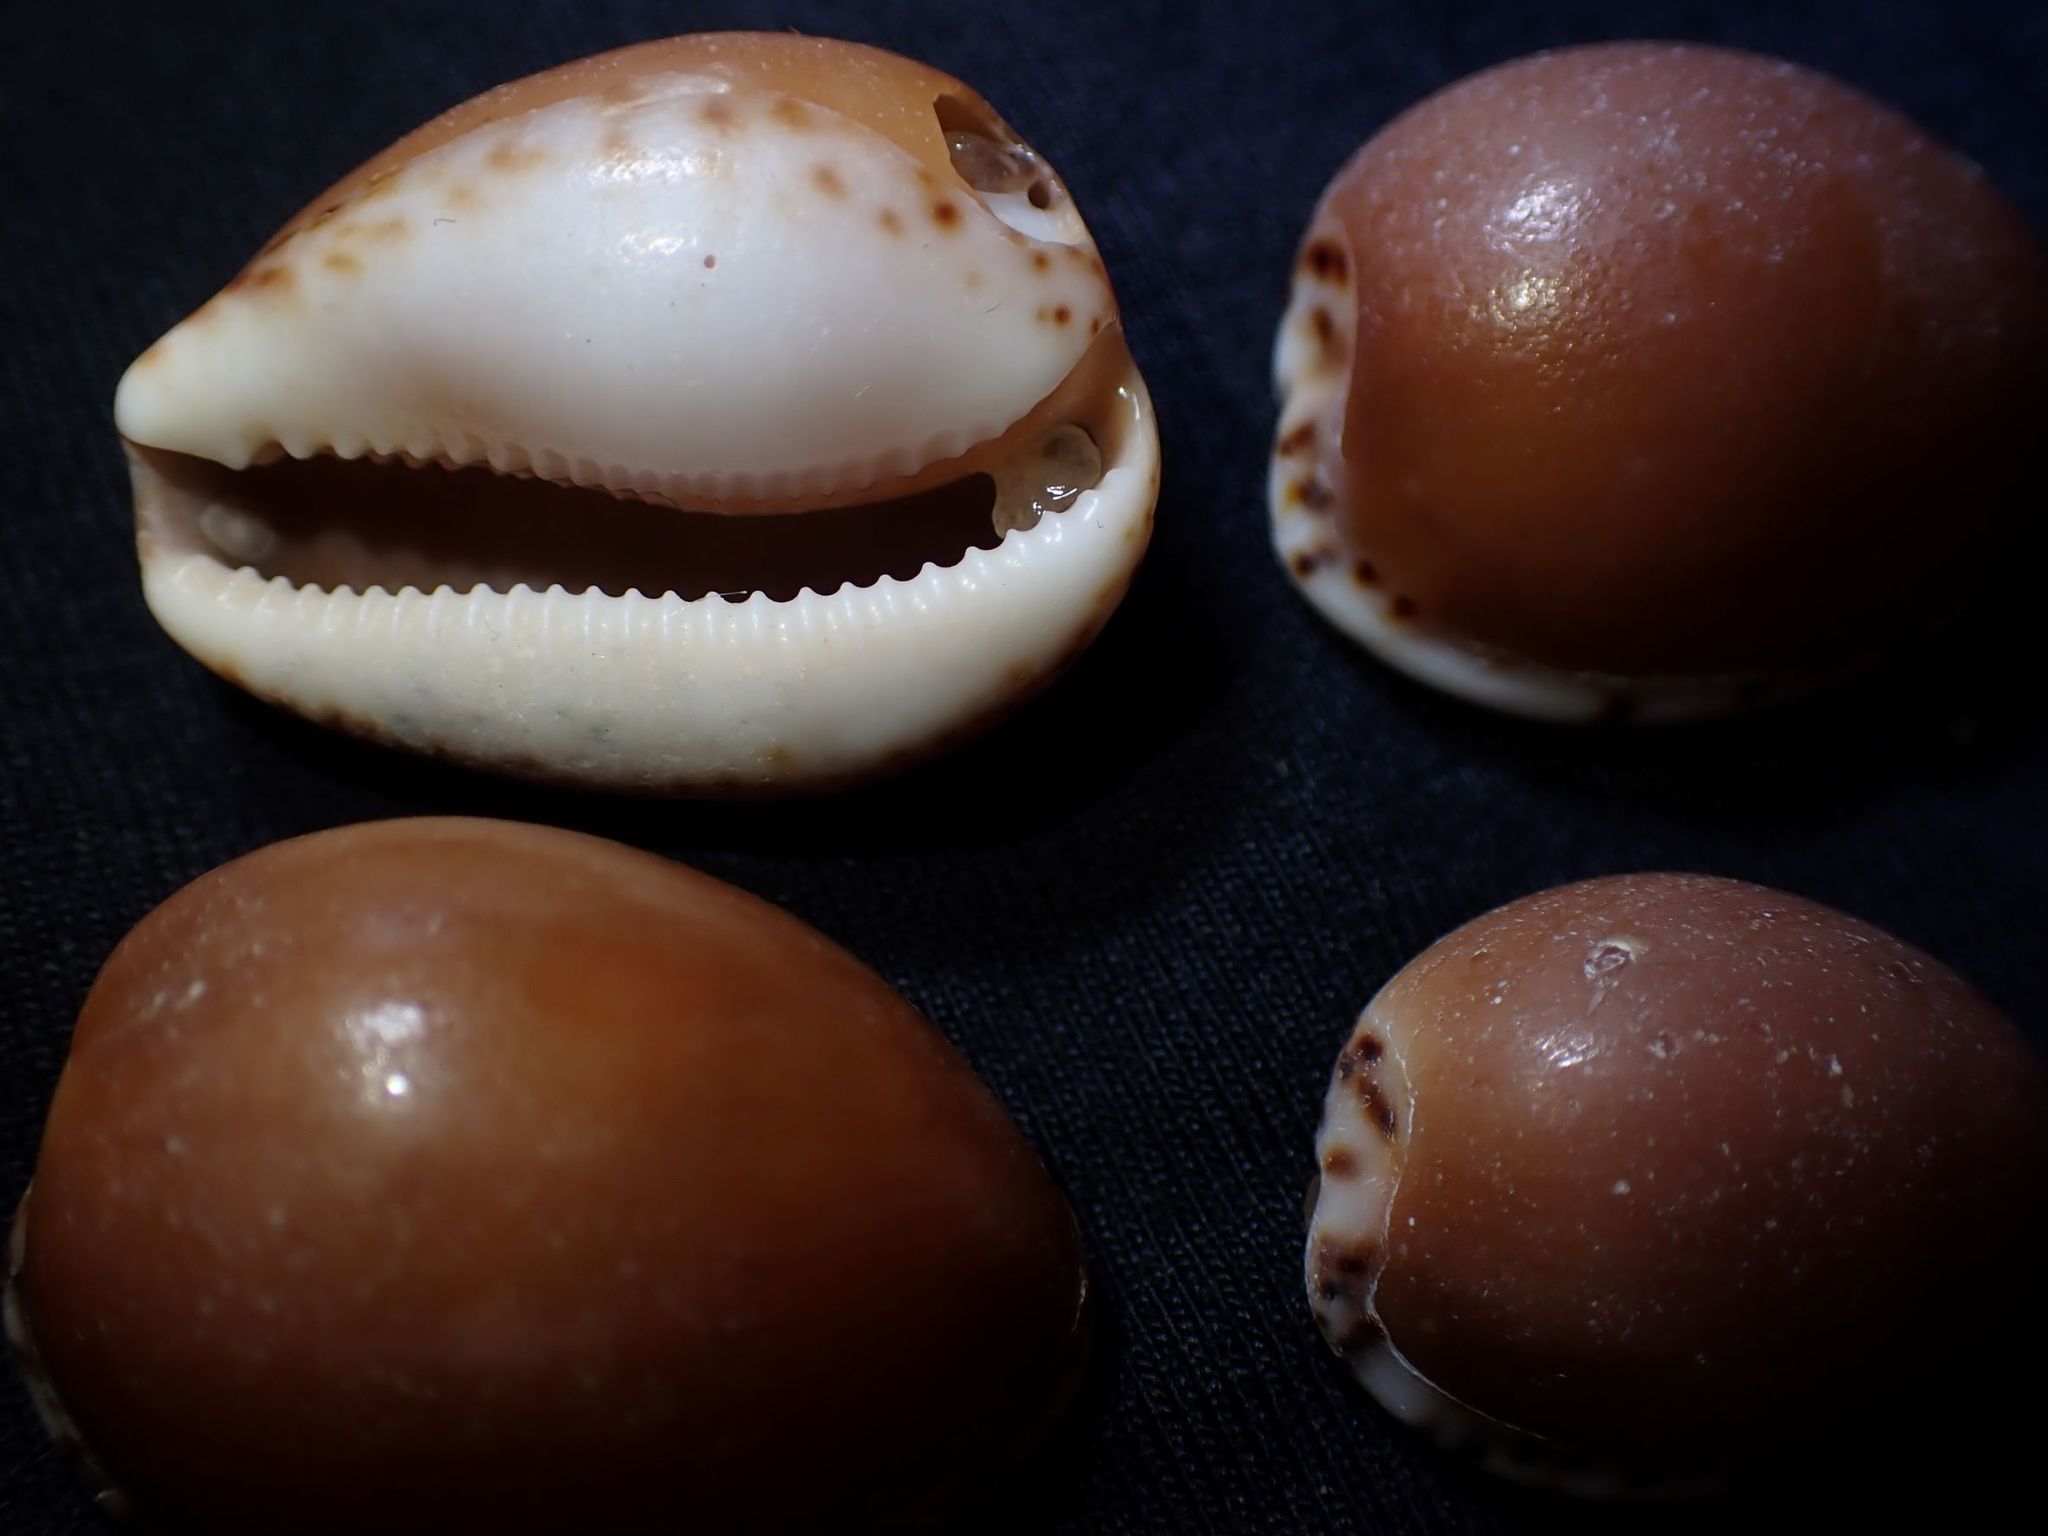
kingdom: Animalia
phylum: Mollusca
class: Gastropoda
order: Littorinimorpha
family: Cypraeidae
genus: Notocypraea
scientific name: Notocypraea angustata
